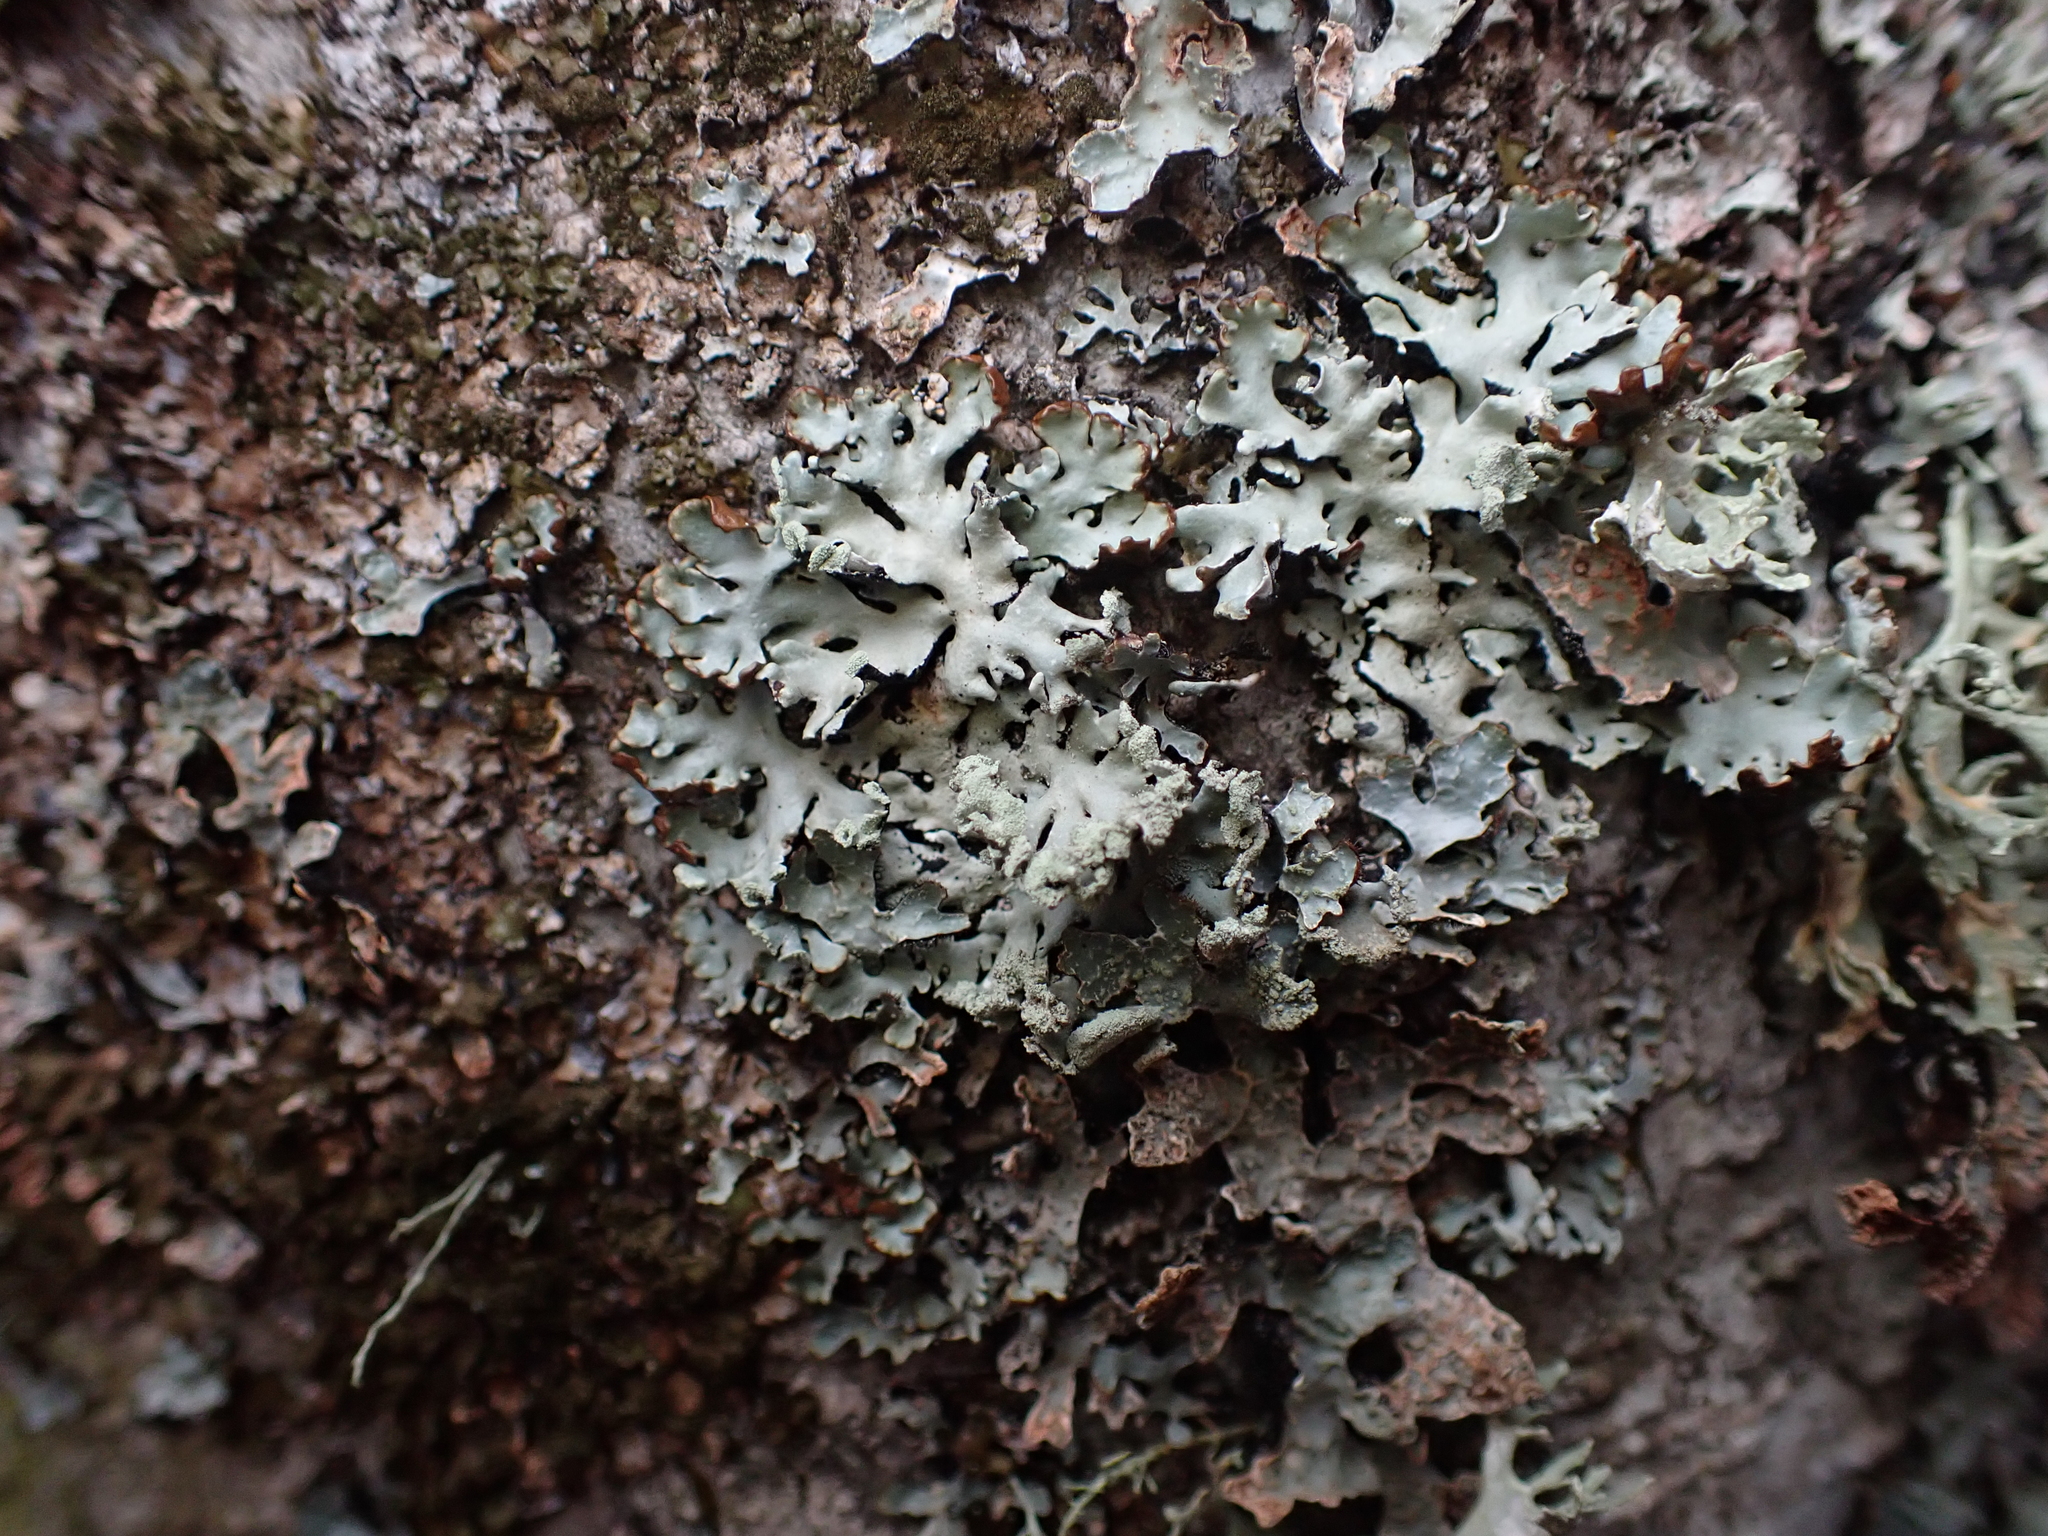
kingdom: Fungi
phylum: Ascomycota
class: Lecanoromycetes
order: Lecanorales
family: Parmeliaceae
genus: Hypogymnia
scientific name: Hypogymnia physodes
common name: Dark crottle
